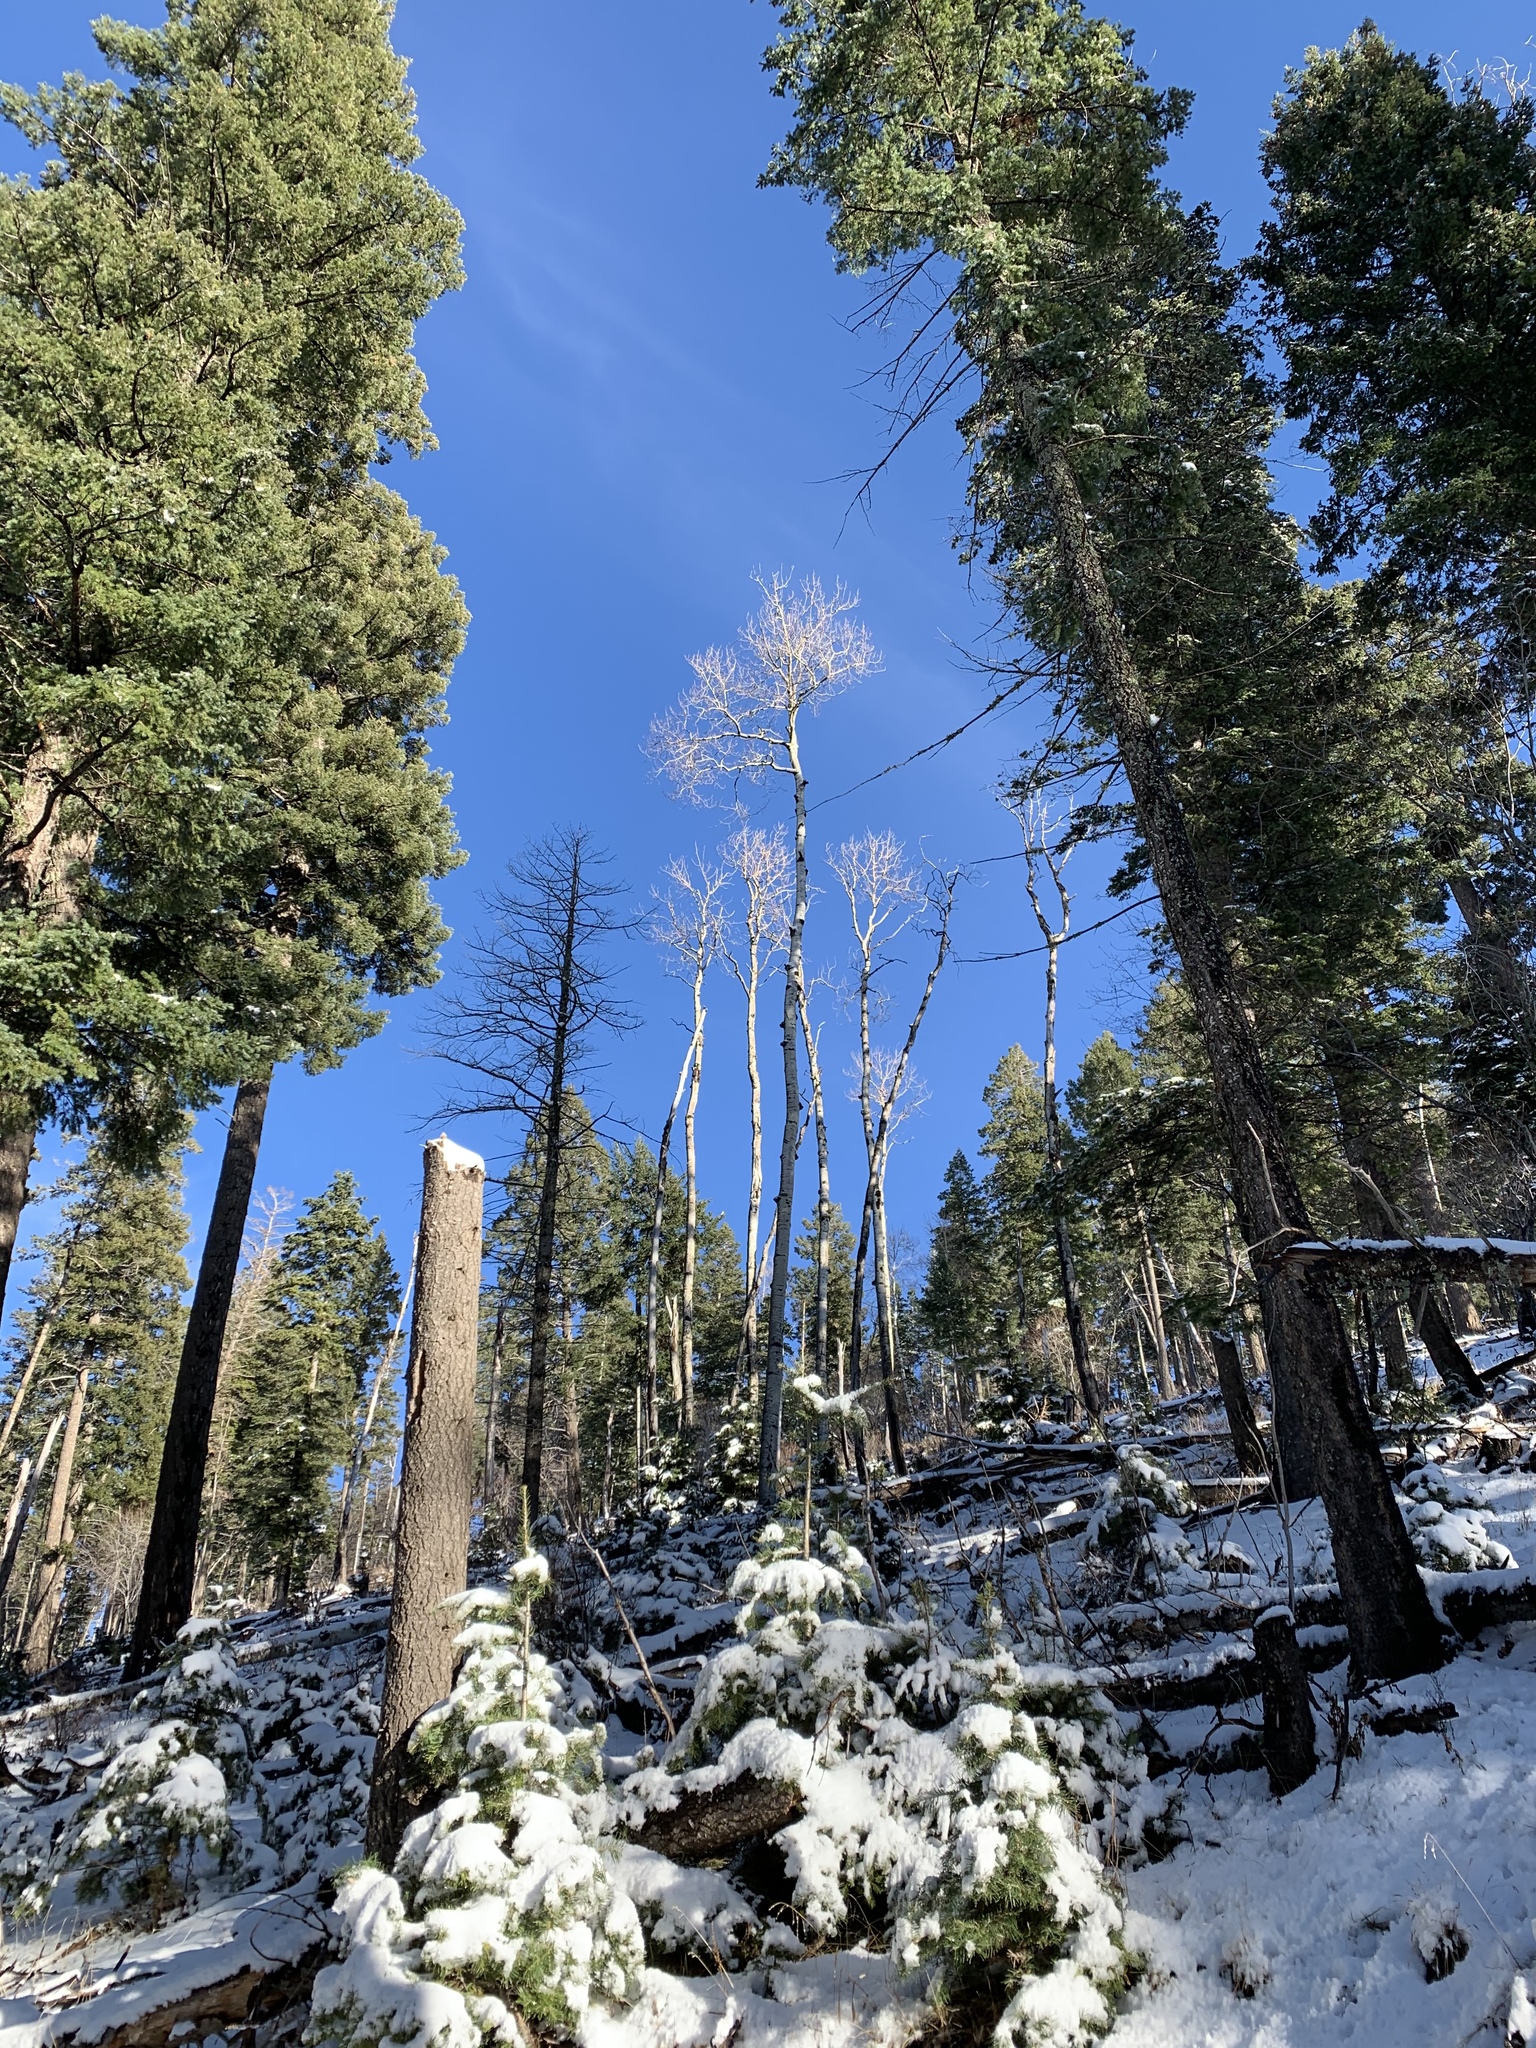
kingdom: Plantae
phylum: Tracheophyta
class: Magnoliopsida
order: Malpighiales
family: Salicaceae
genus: Populus
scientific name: Populus tremuloides
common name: Quaking aspen
